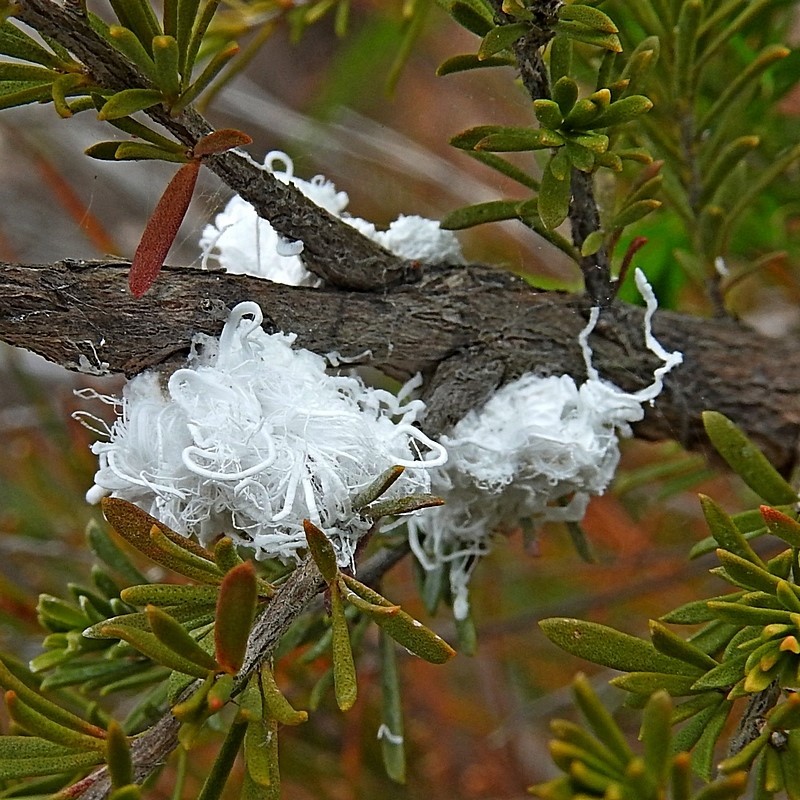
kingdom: Animalia
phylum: Arthropoda
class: Insecta
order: Hemiptera
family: Asterolecaniidae
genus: Callococcus
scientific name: Callococcus
